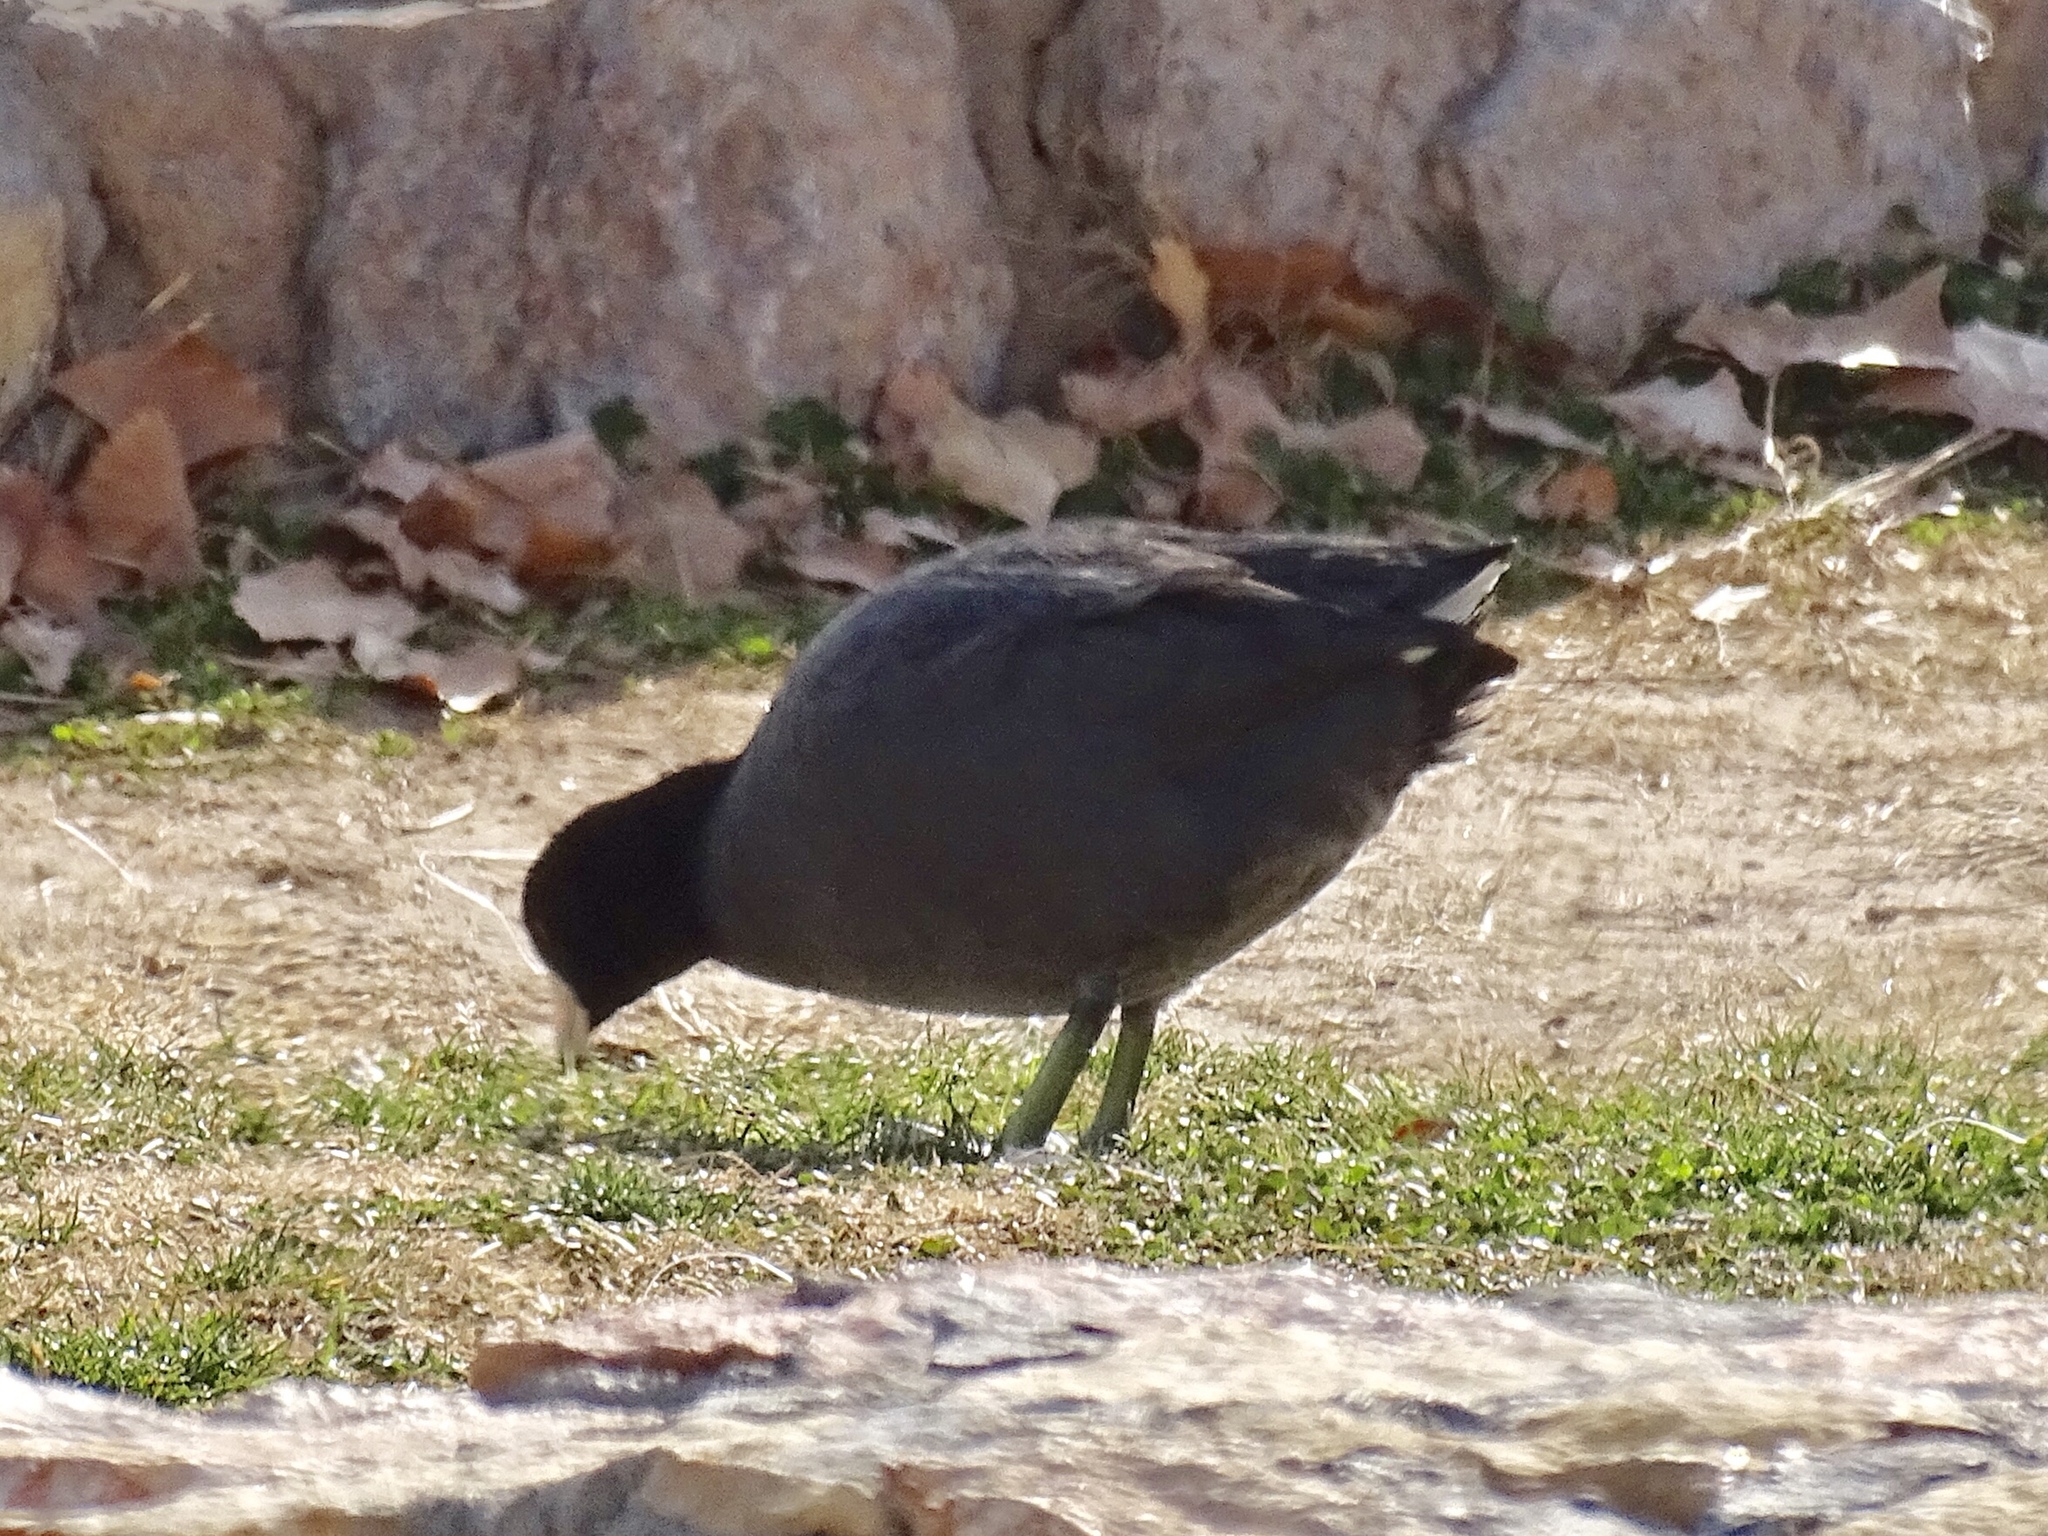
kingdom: Animalia
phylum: Chordata
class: Aves
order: Gruiformes
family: Rallidae
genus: Fulica
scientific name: Fulica americana
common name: American coot
